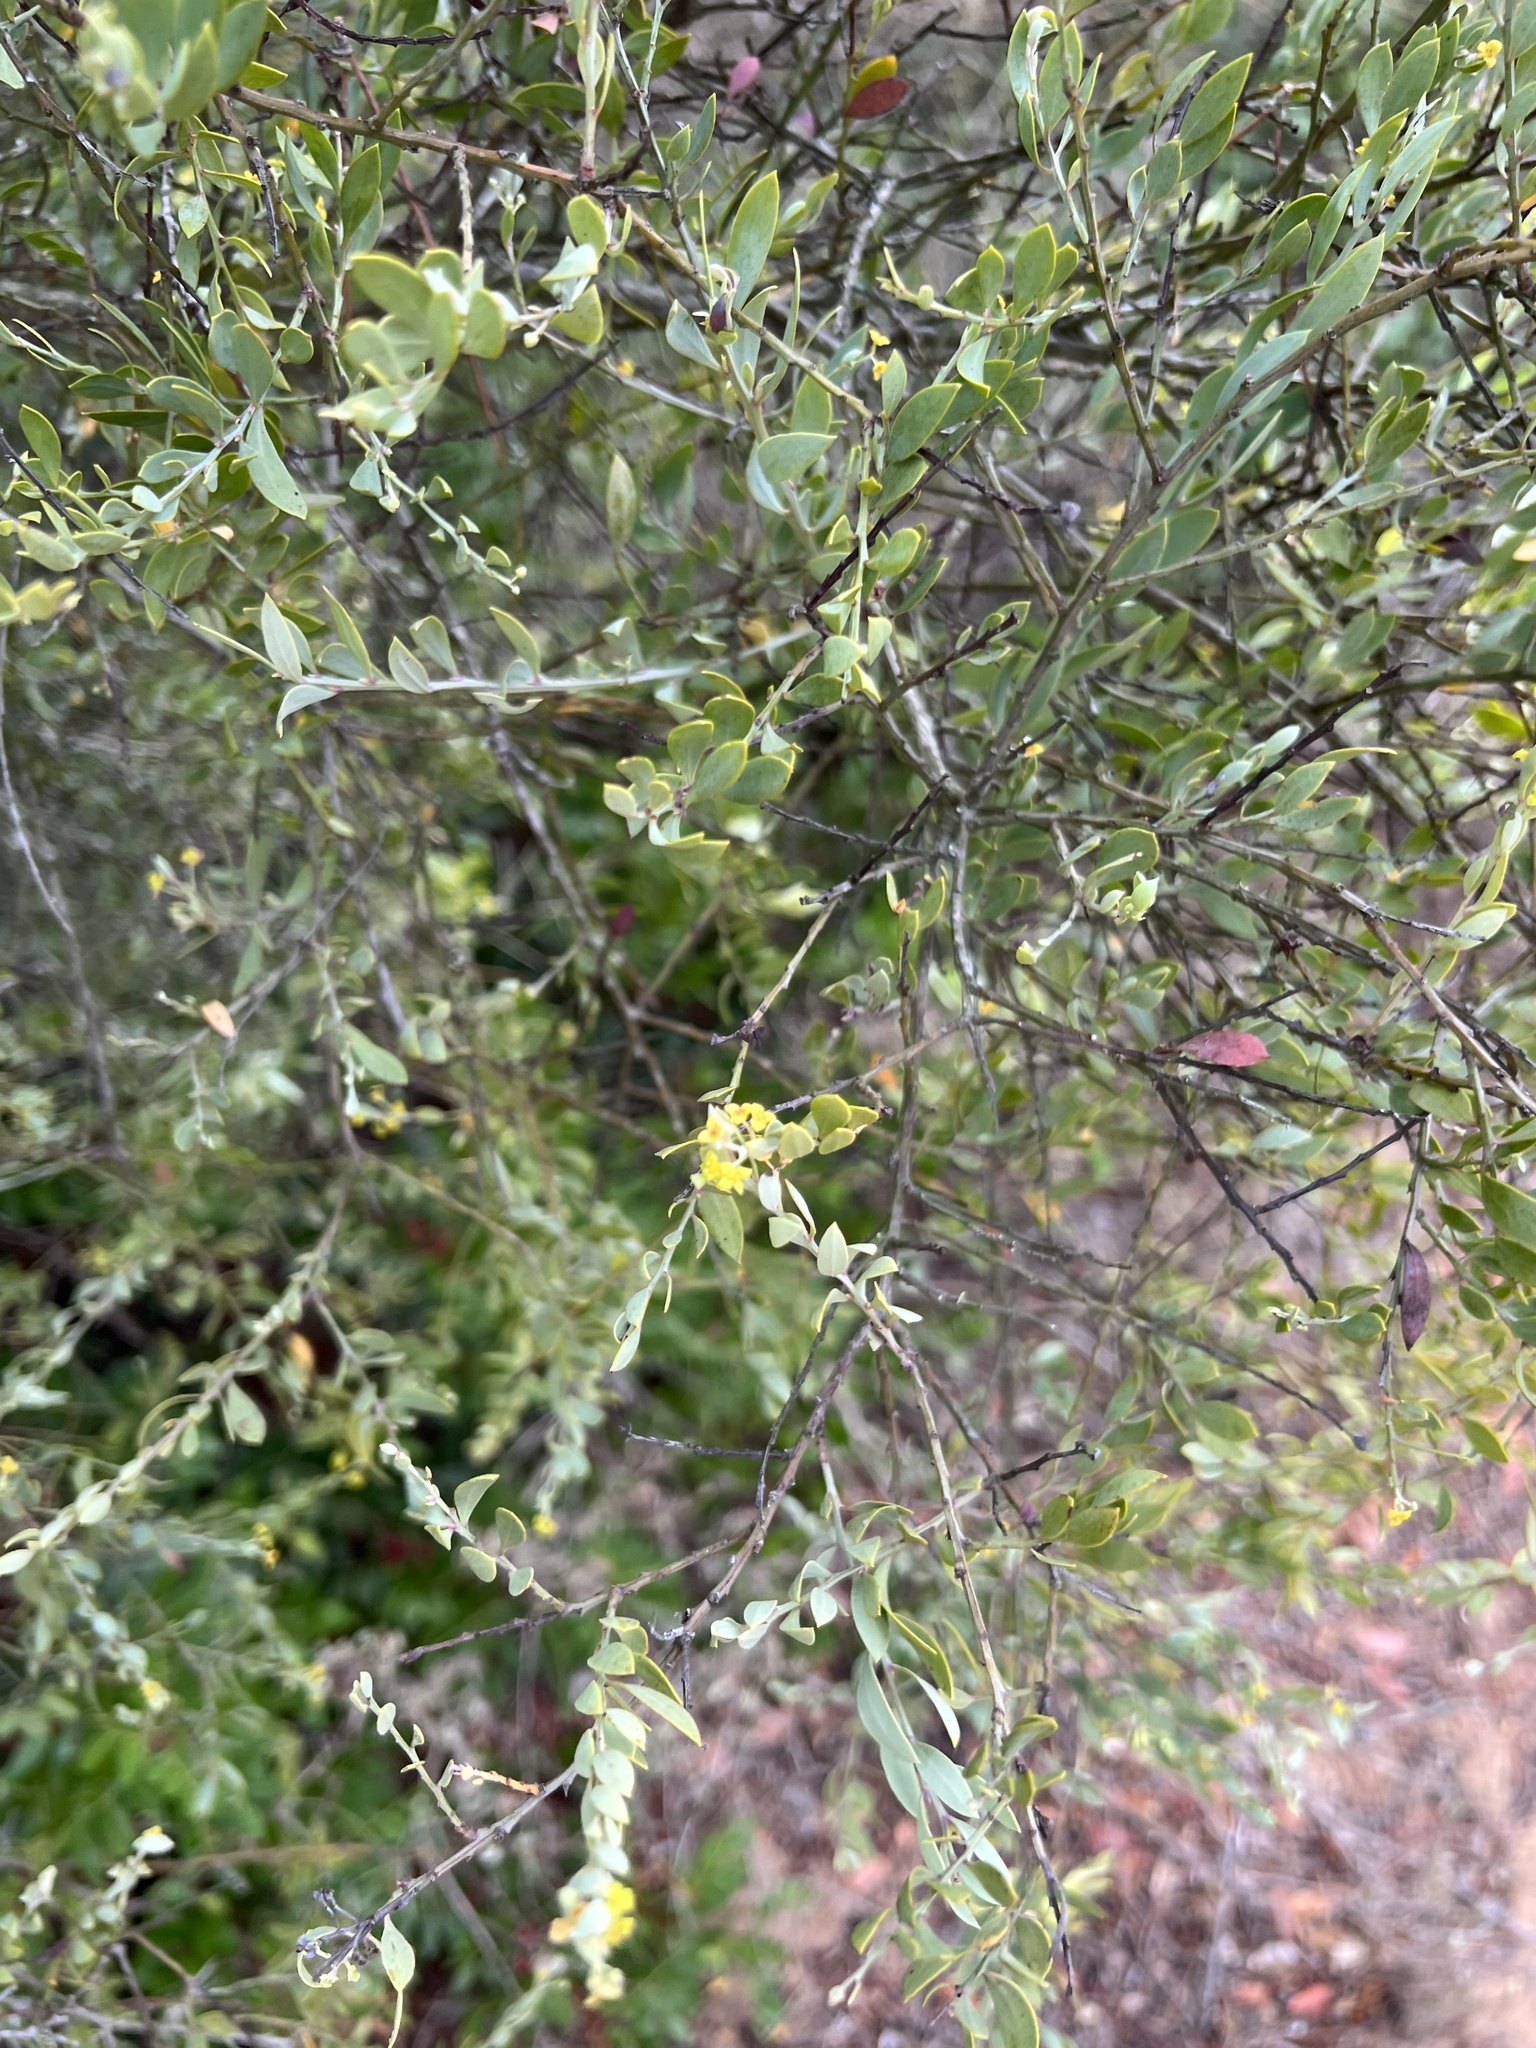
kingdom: Plantae
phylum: Tracheophyta
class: Magnoliopsida
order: Santalales
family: Santalaceae
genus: Osyris
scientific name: Osyris lanceolata
